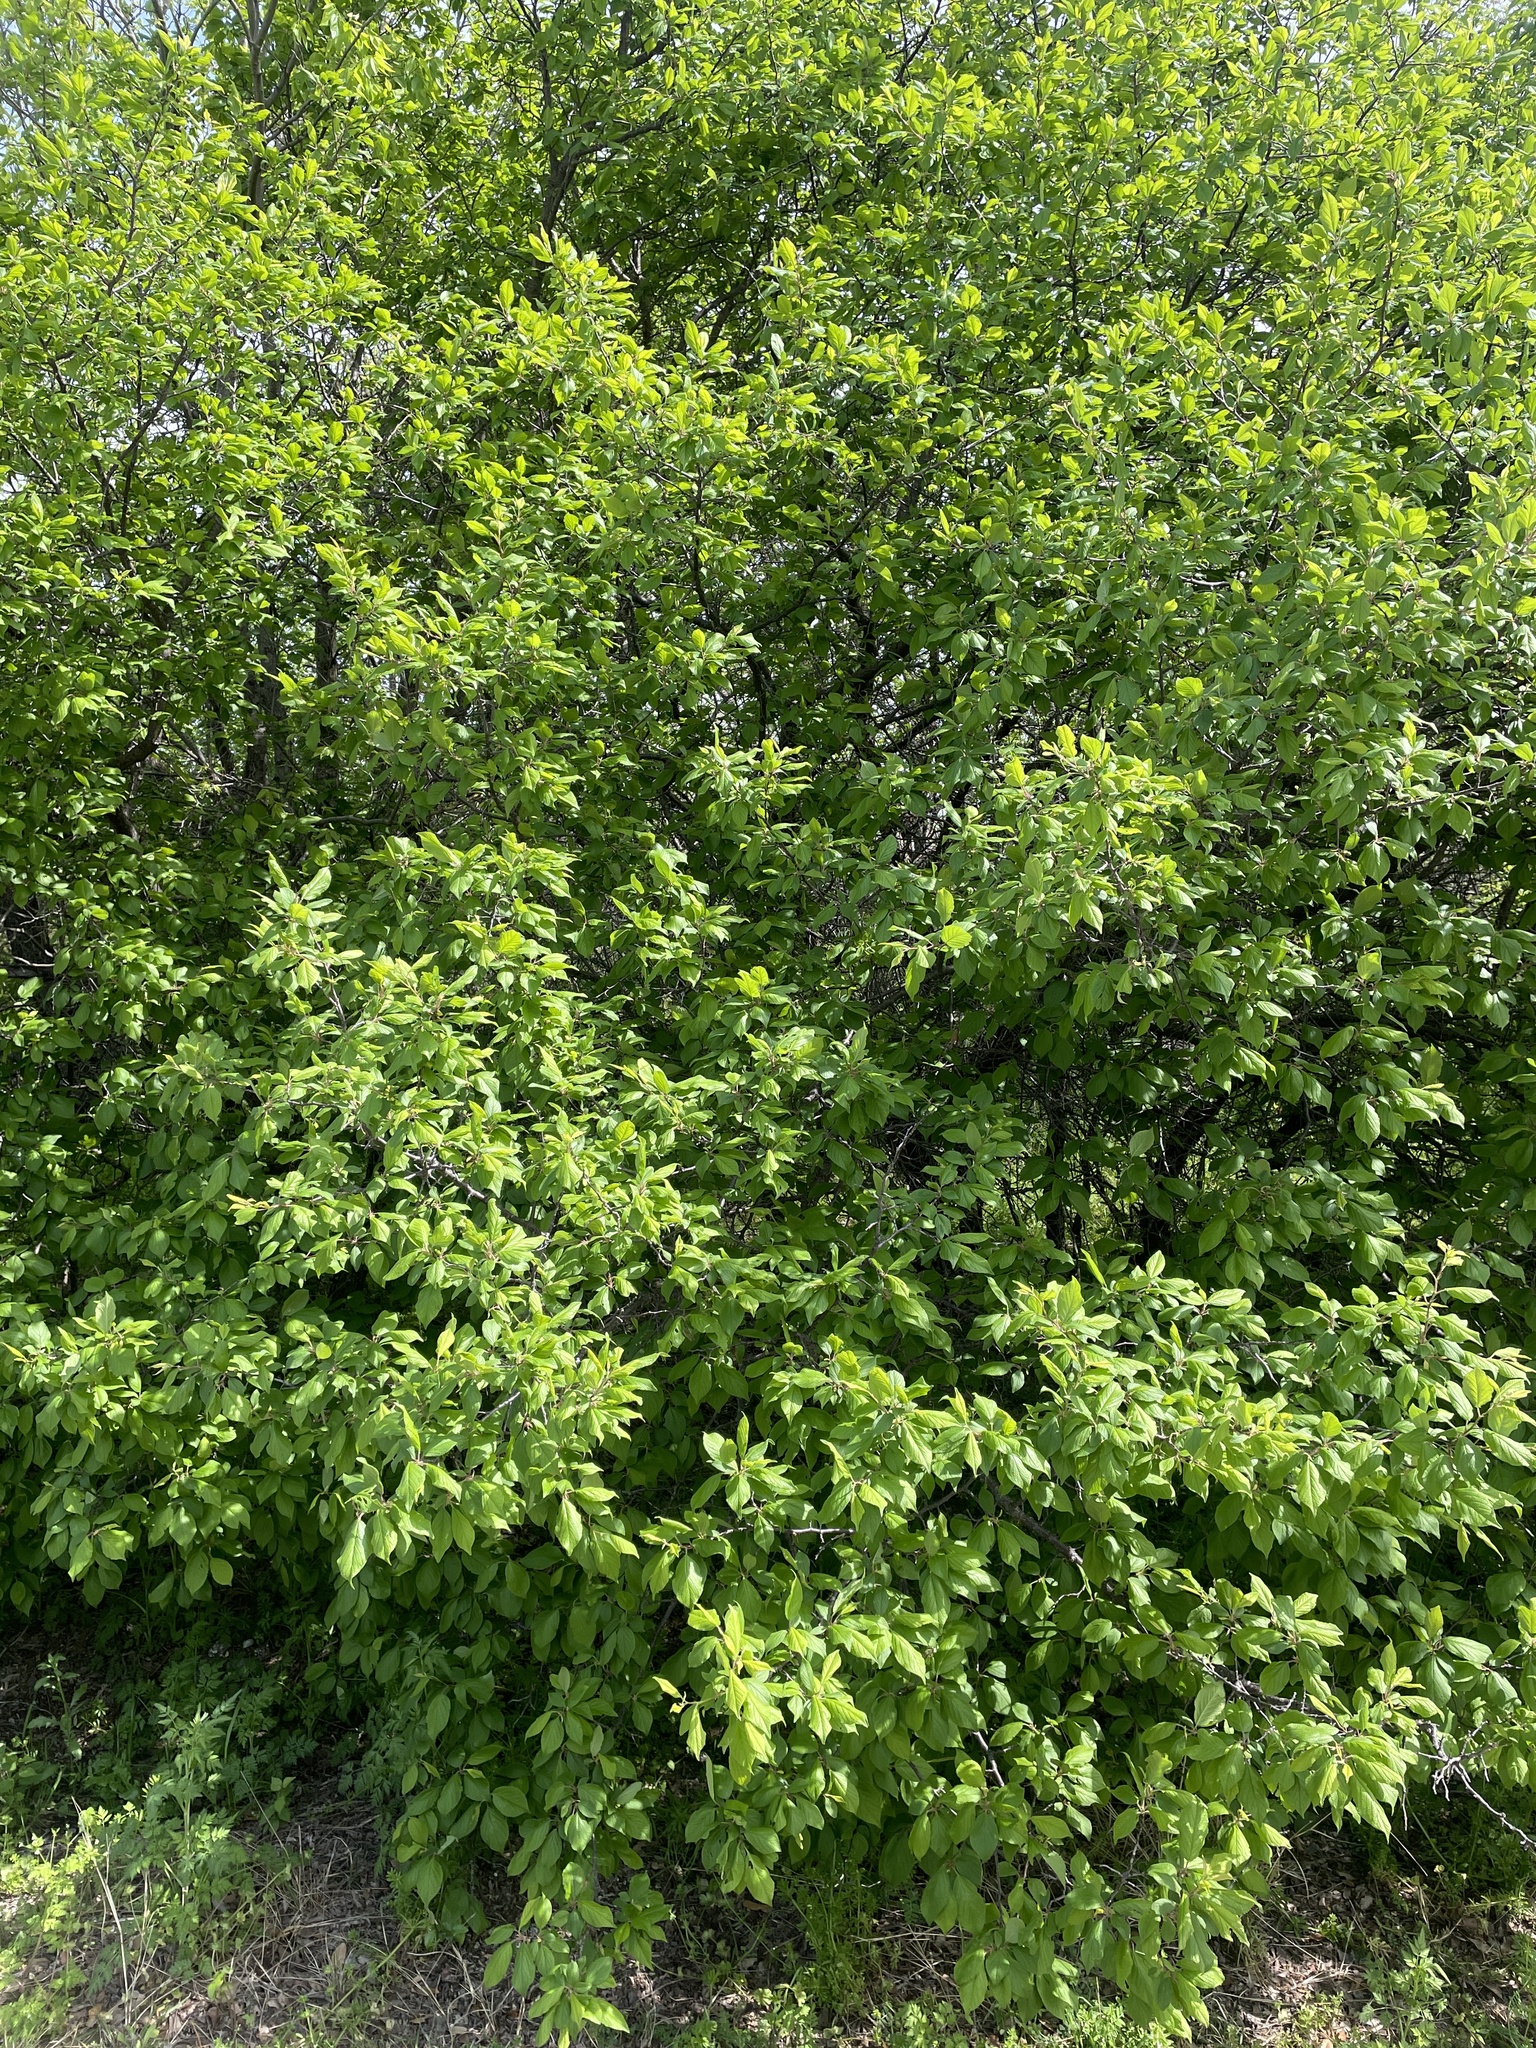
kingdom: Plantae
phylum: Tracheophyta
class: Magnoliopsida
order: Rosales
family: Rosaceae
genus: Prunus
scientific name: Prunus mexicana
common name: Mexican plum
